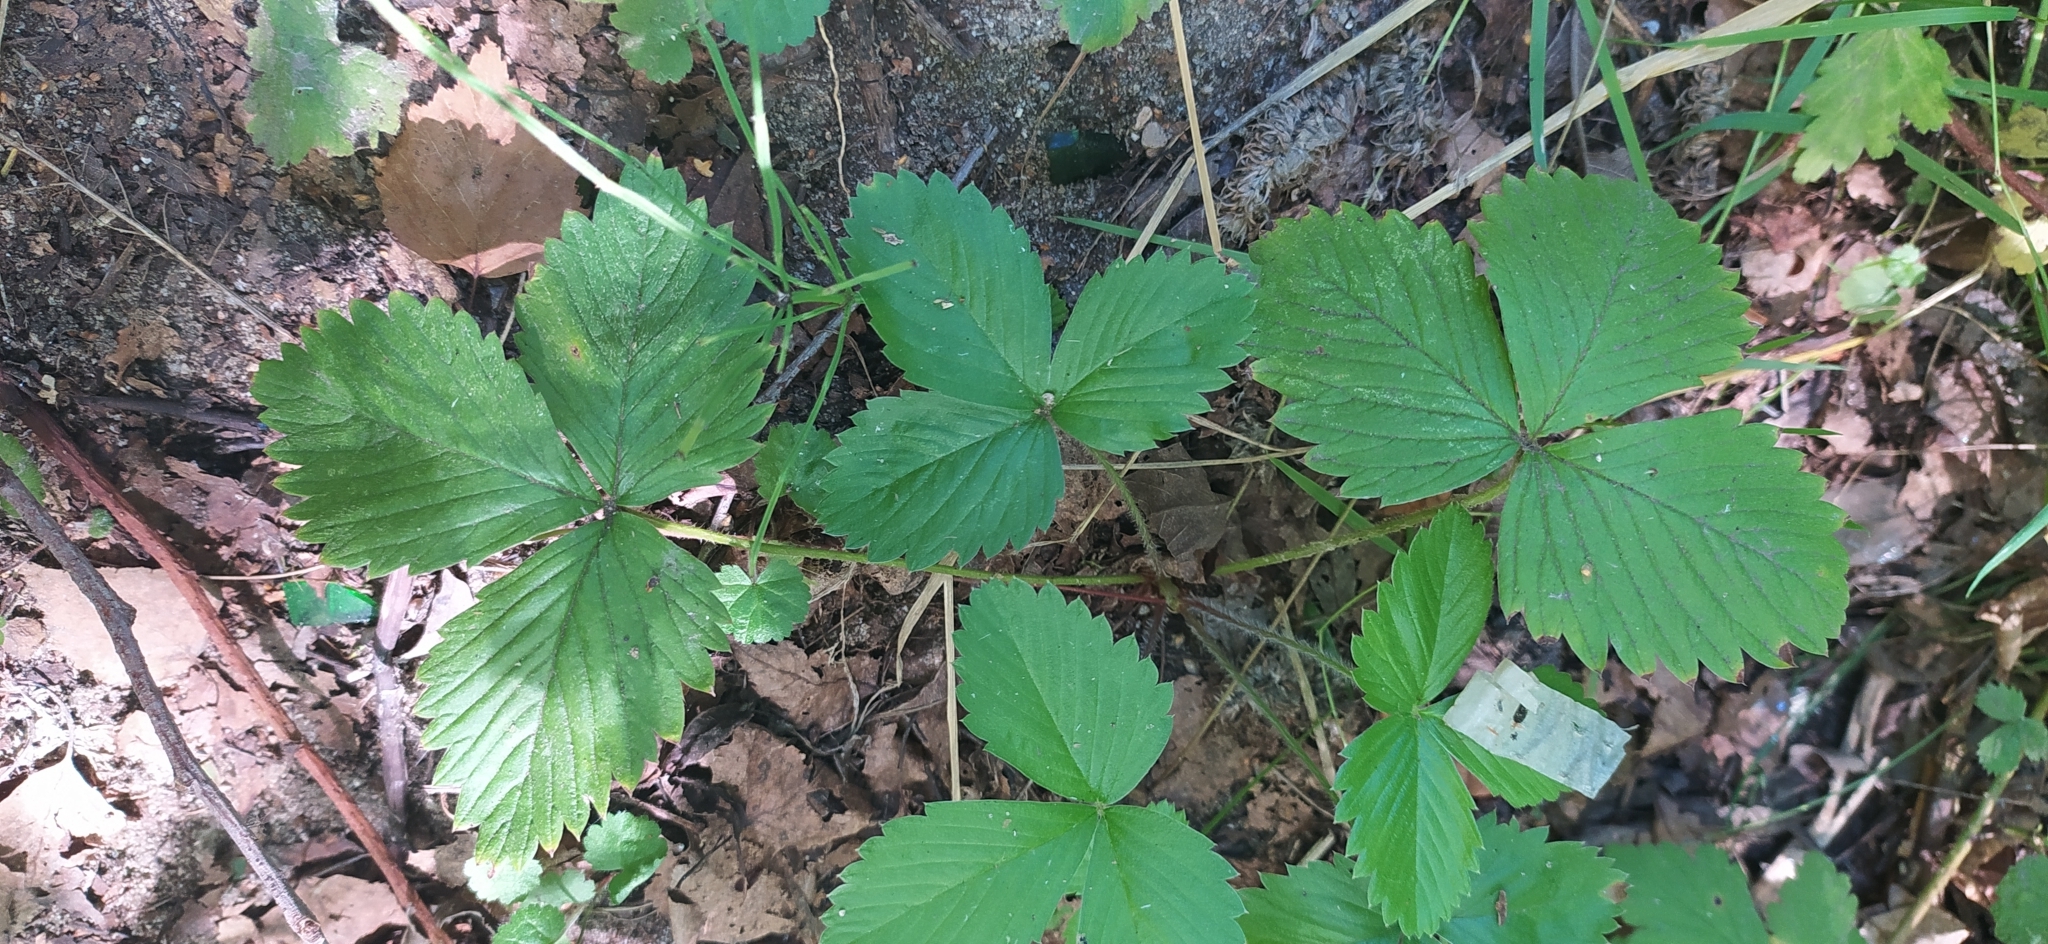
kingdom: Plantae
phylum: Tracheophyta
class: Magnoliopsida
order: Rosales
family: Rosaceae
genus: Fragaria
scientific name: Fragaria vesca
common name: Wild strawberry
